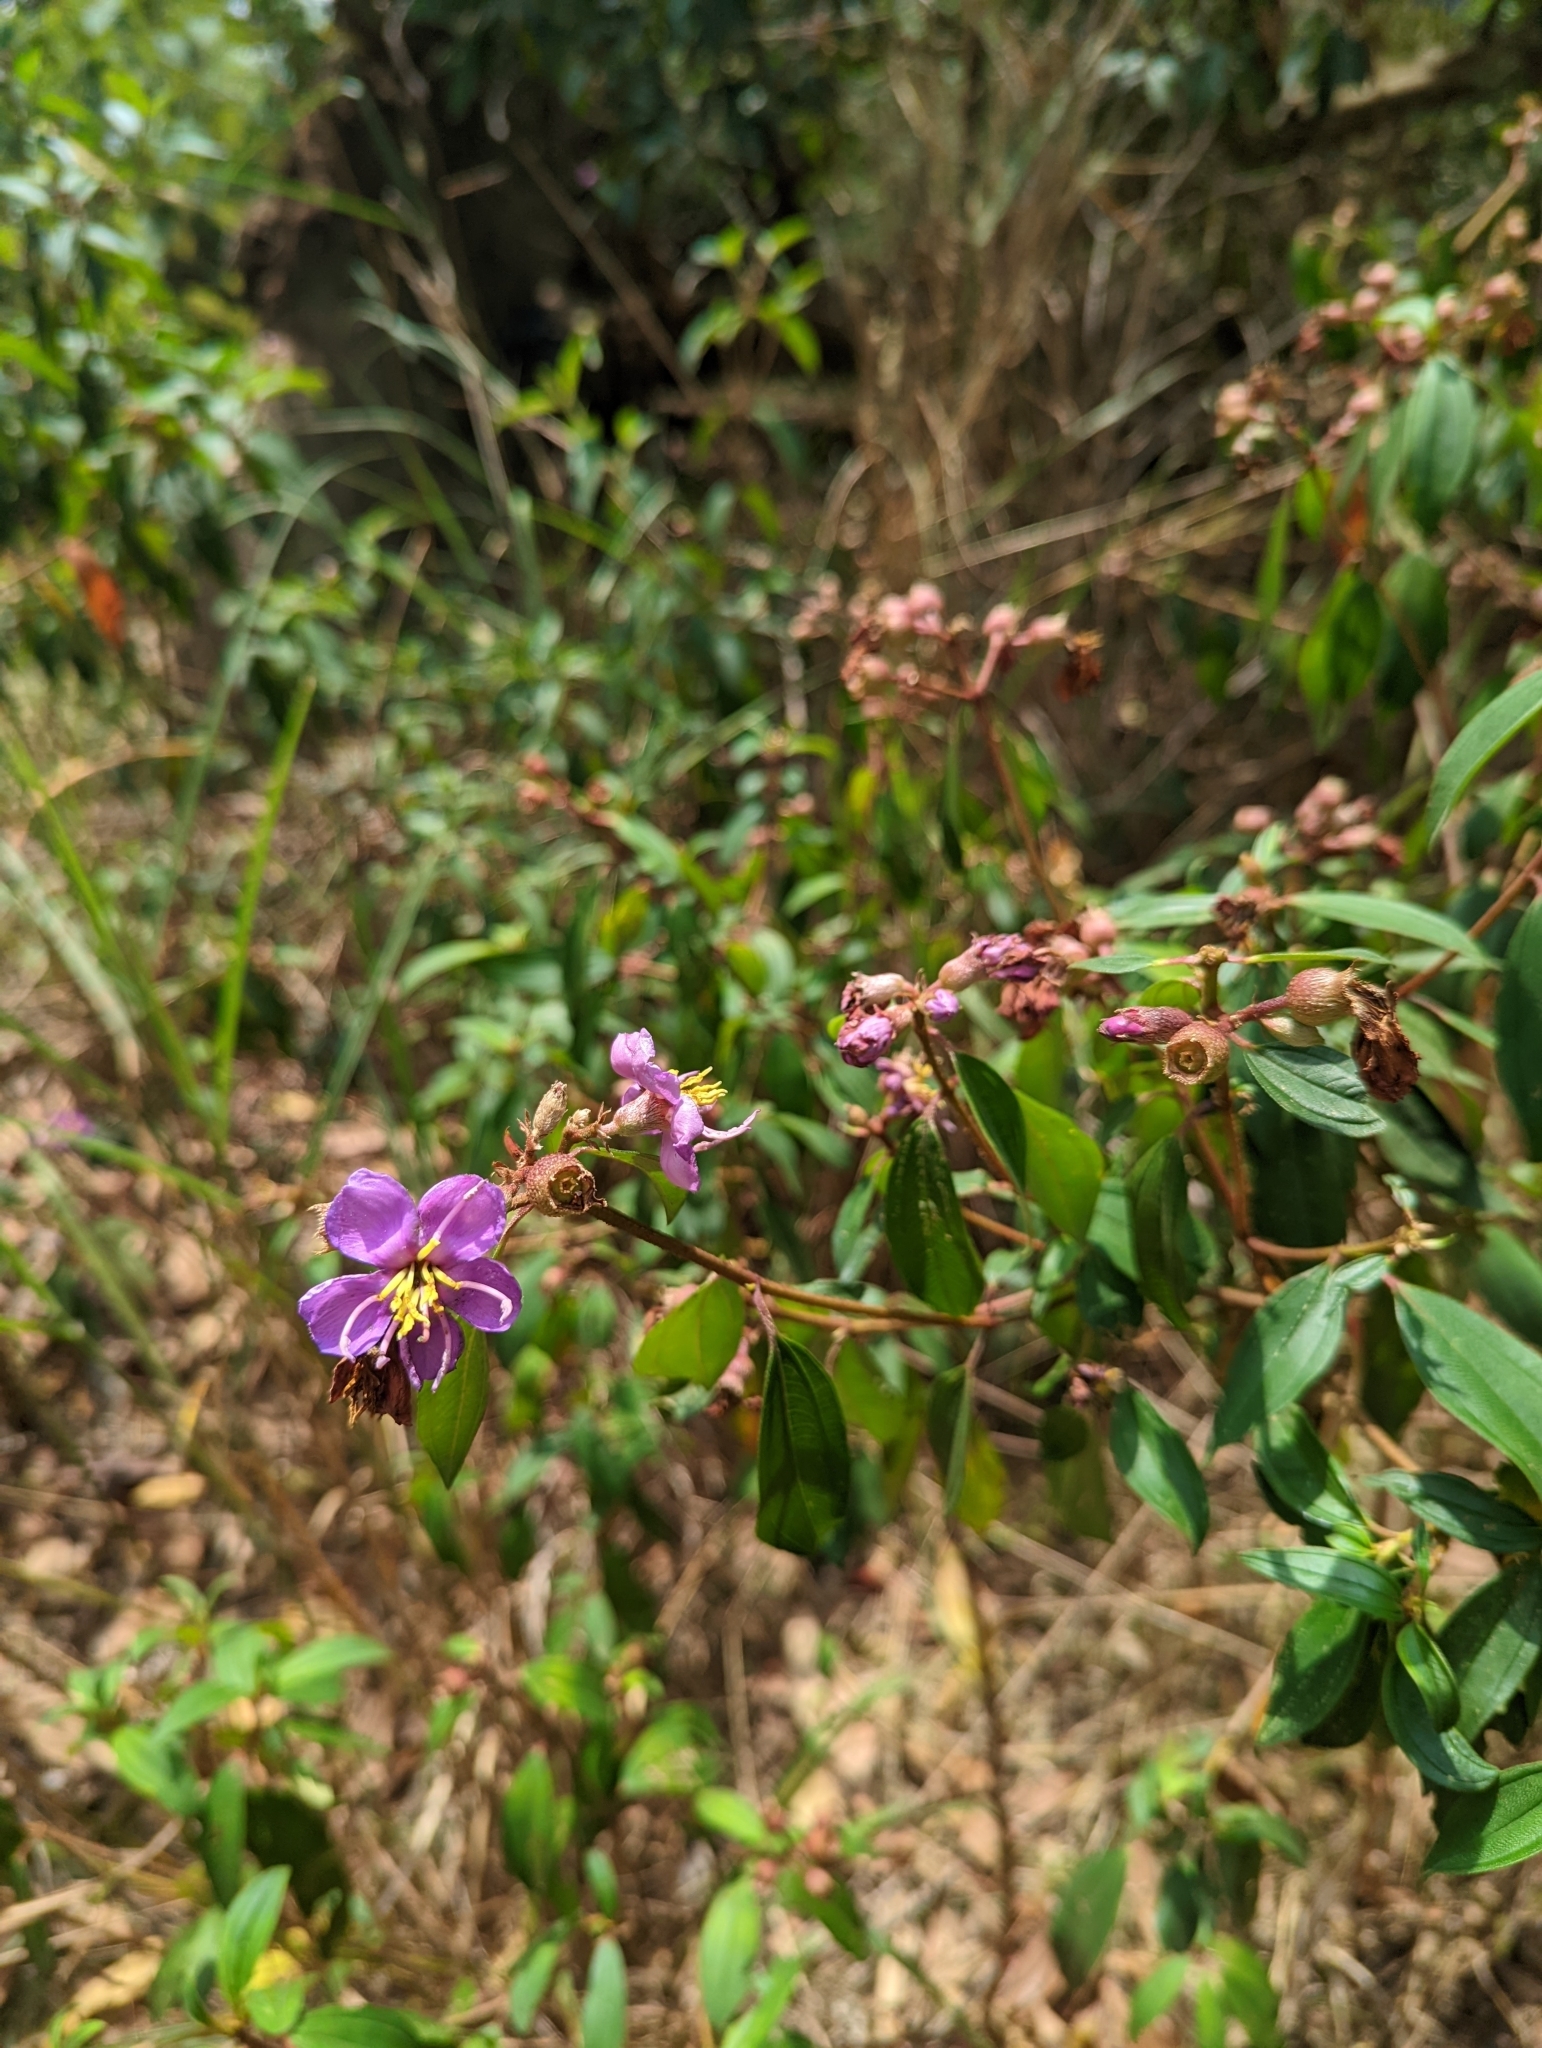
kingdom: Plantae
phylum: Tracheophyta
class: Magnoliopsida
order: Myrtales
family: Melastomataceae
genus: Melastoma
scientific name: Melastoma malabathricum
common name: Indian-rhododendron
